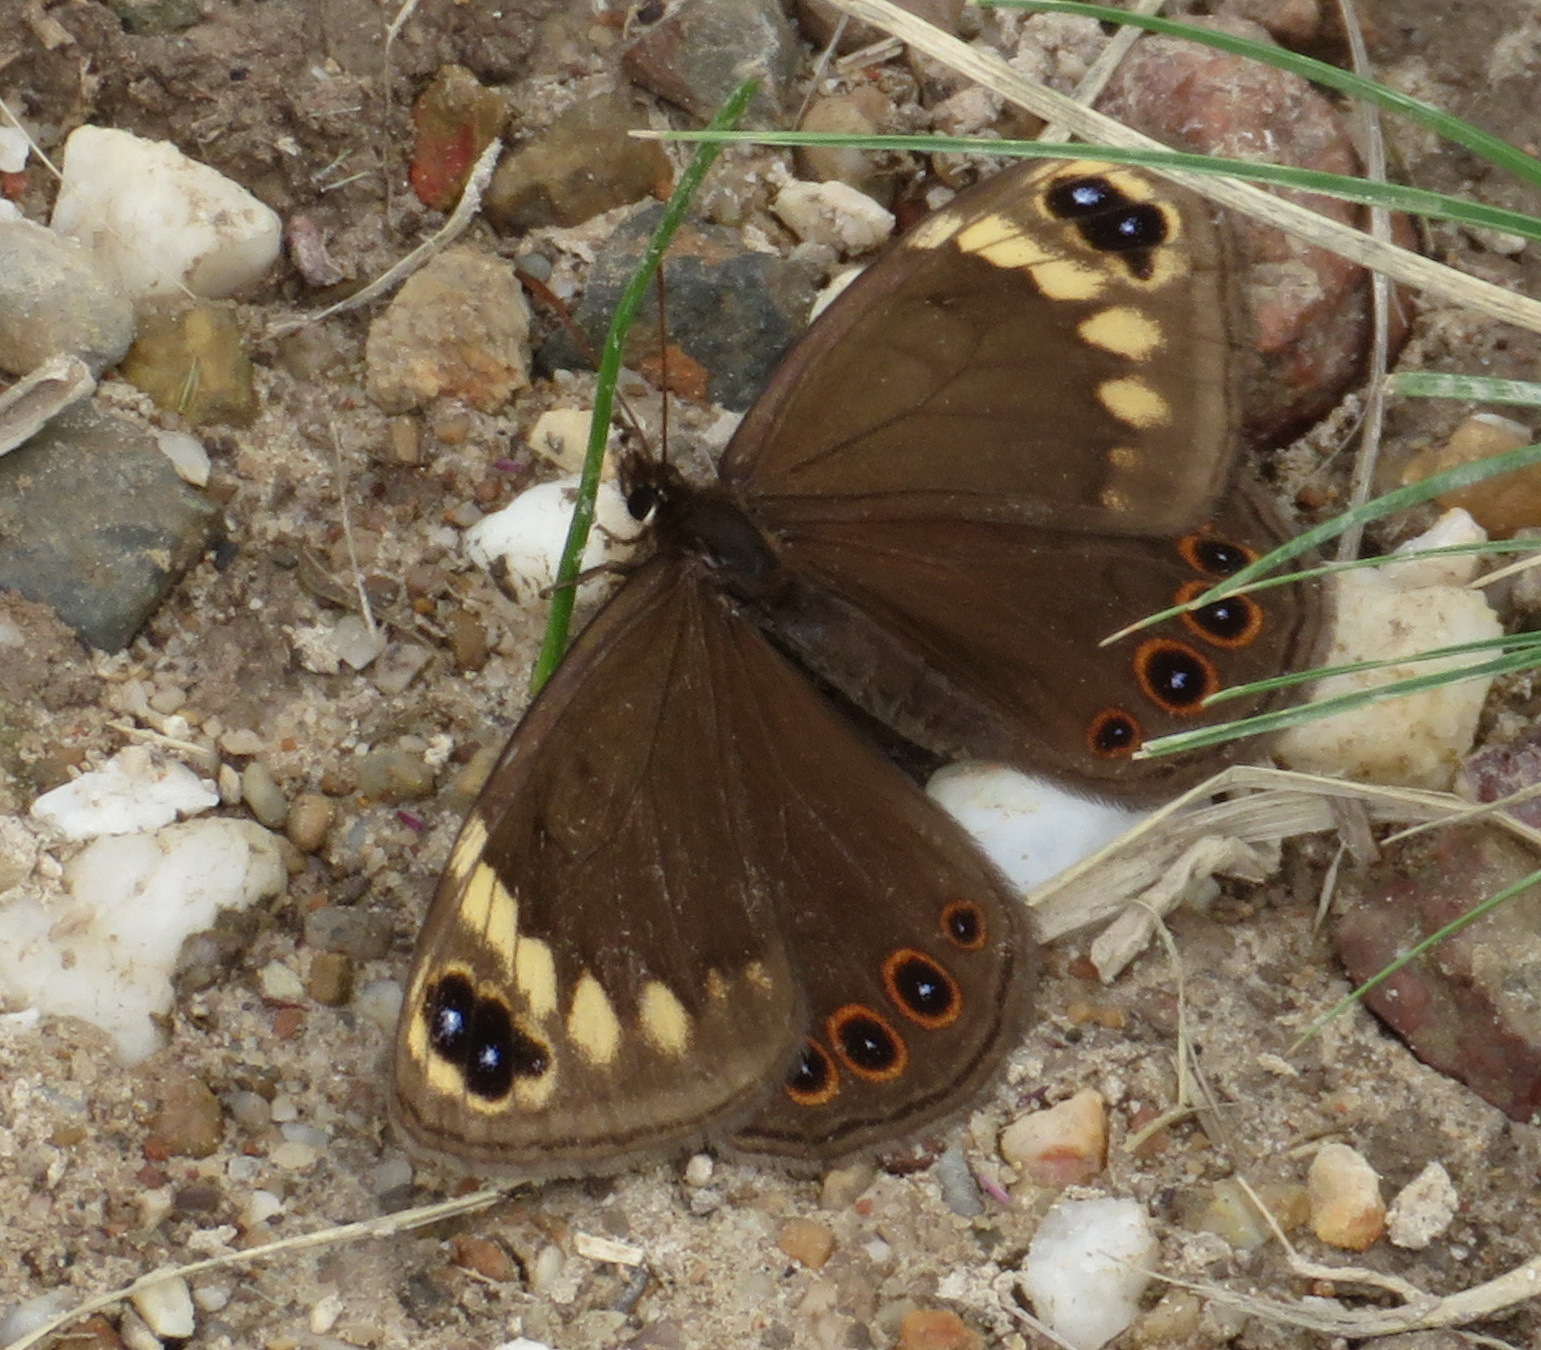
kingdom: Animalia
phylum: Arthropoda
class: Insecta
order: Lepidoptera
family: Nymphalidae
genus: Dira
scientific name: Dira clytus
